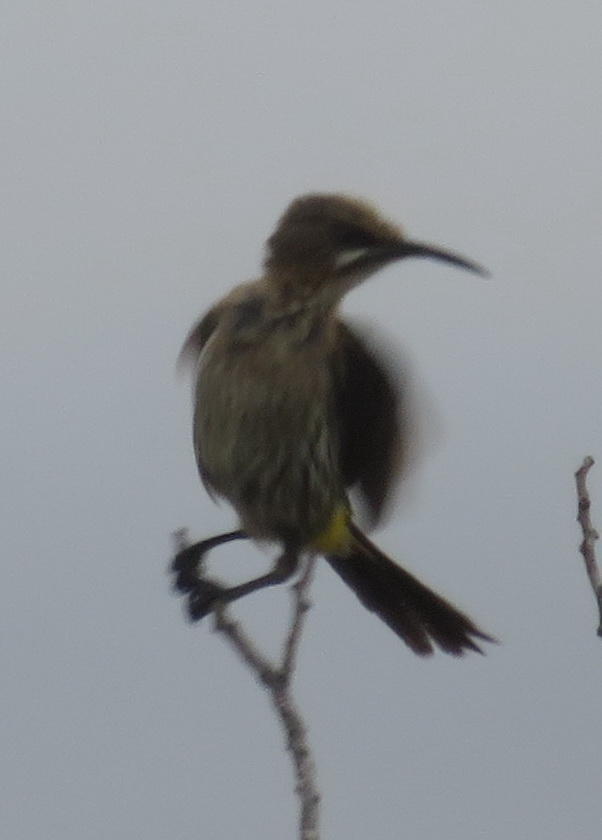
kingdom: Animalia
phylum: Chordata
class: Aves
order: Passeriformes
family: Promeropidae
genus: Promerops
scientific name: Promerops cafer
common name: Cape sugarbird
